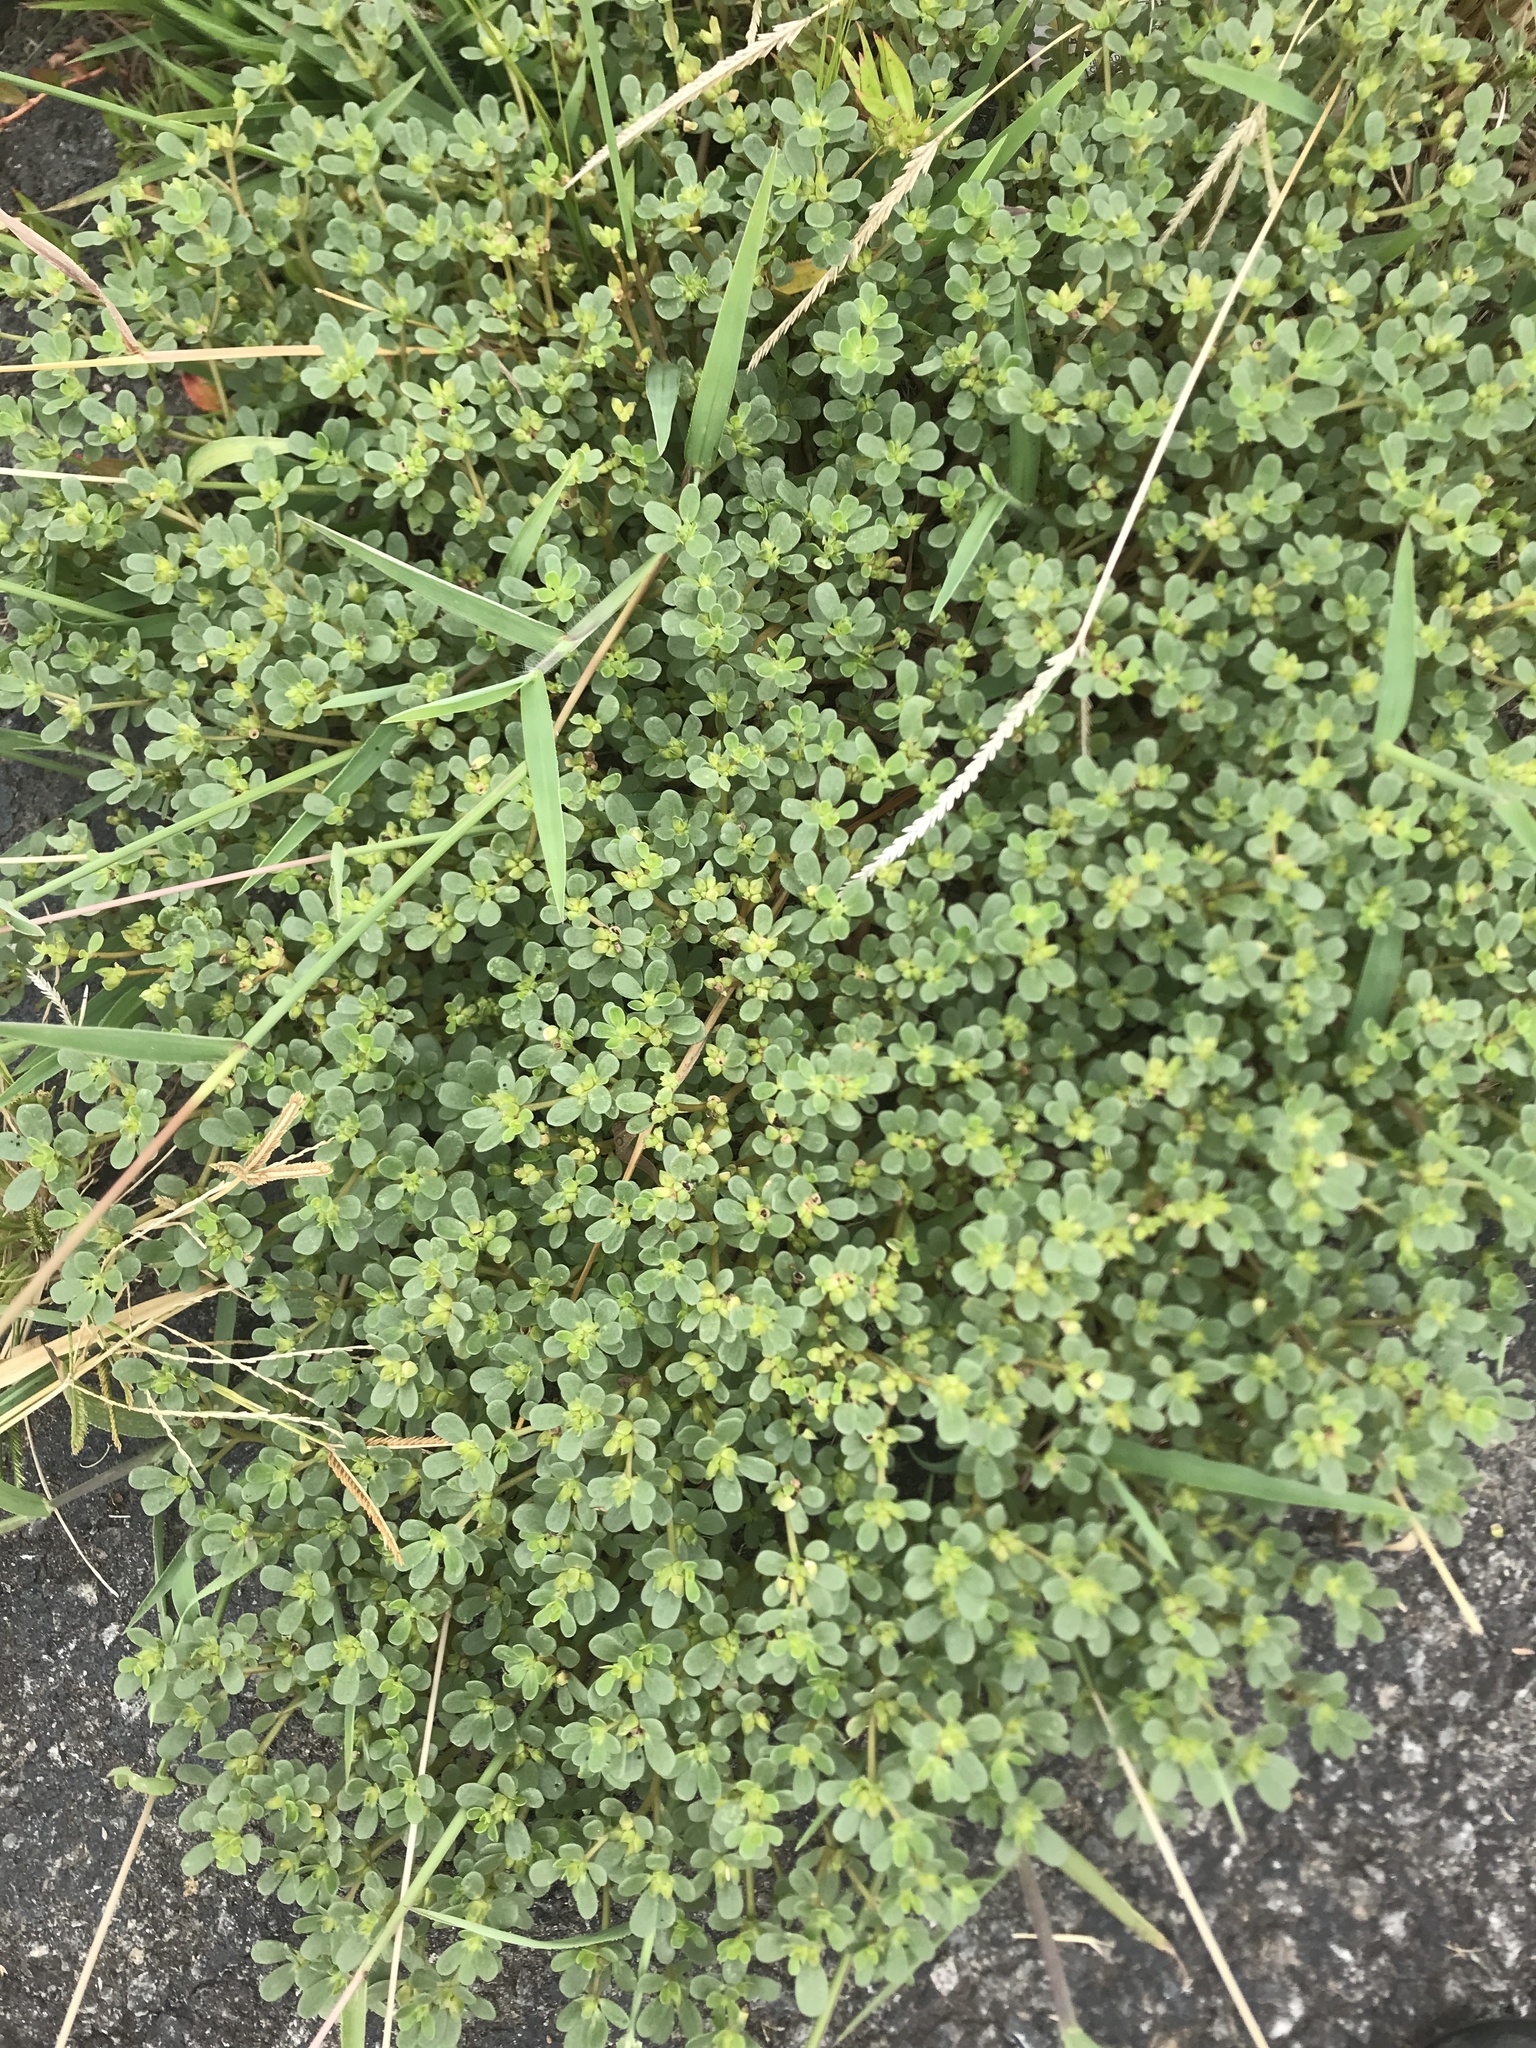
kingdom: Plantae
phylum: Tracheophyta
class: Magnoliopsida
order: Caryophyllales
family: Portulacaceae
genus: Portulaca
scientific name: Portulaca oleracea
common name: Common purslane
